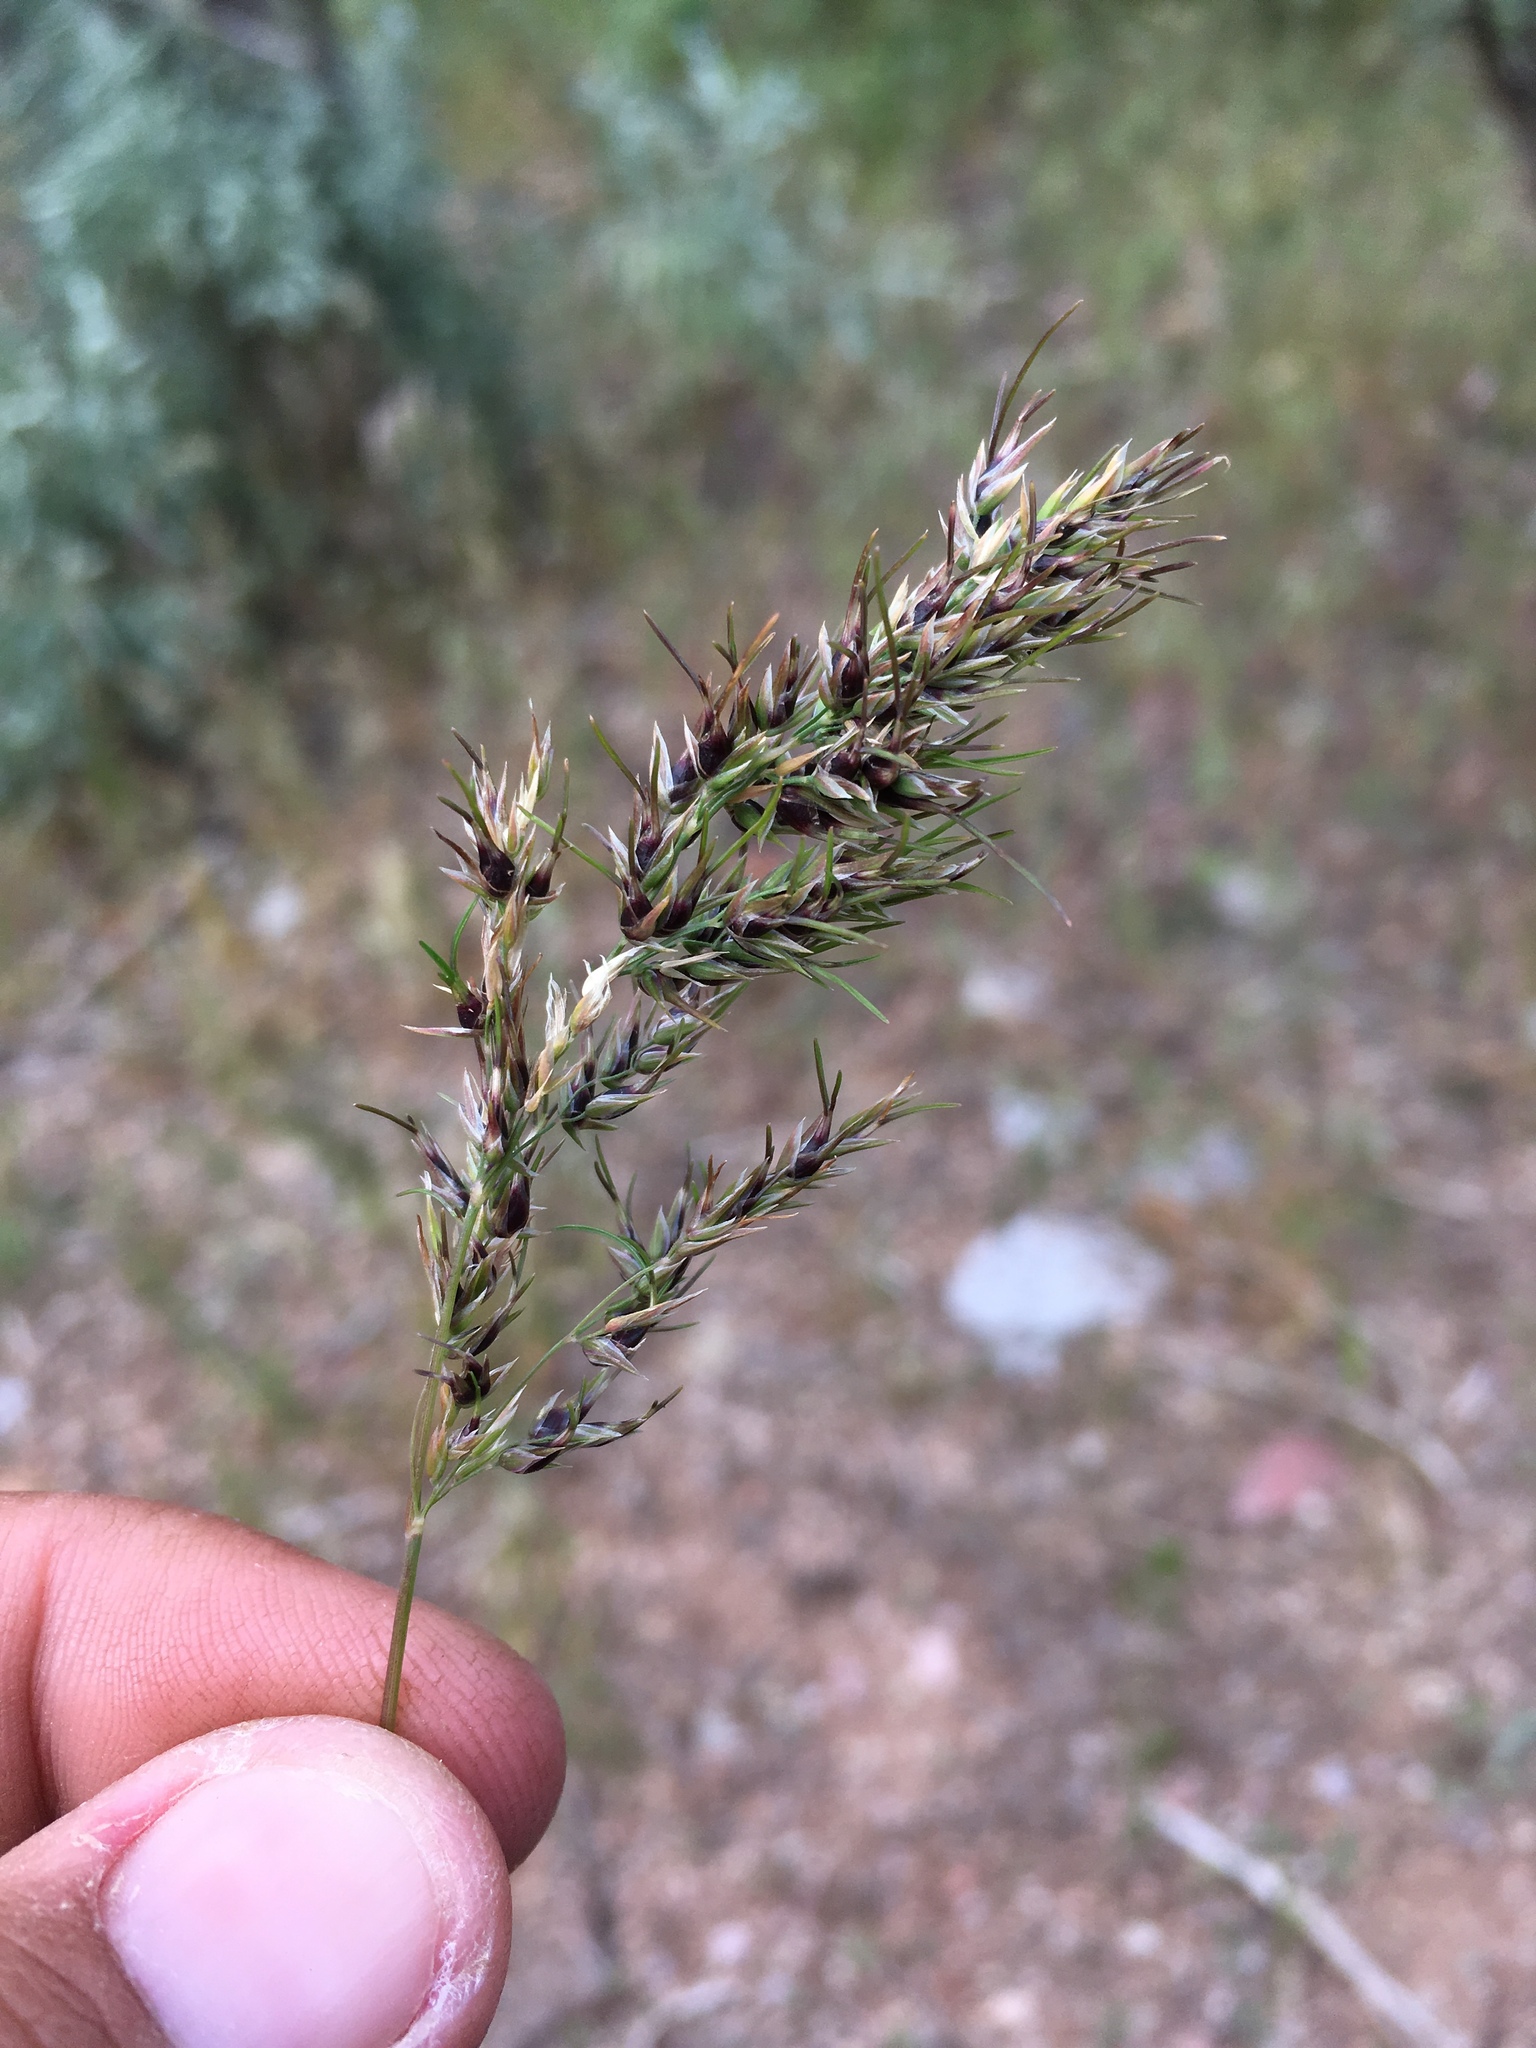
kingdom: Plantae
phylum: Tracheophyta
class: Liliopsida
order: Poales
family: Poaceae
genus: Poa
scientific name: Poa bulbosa
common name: Bulbous bluegrass
